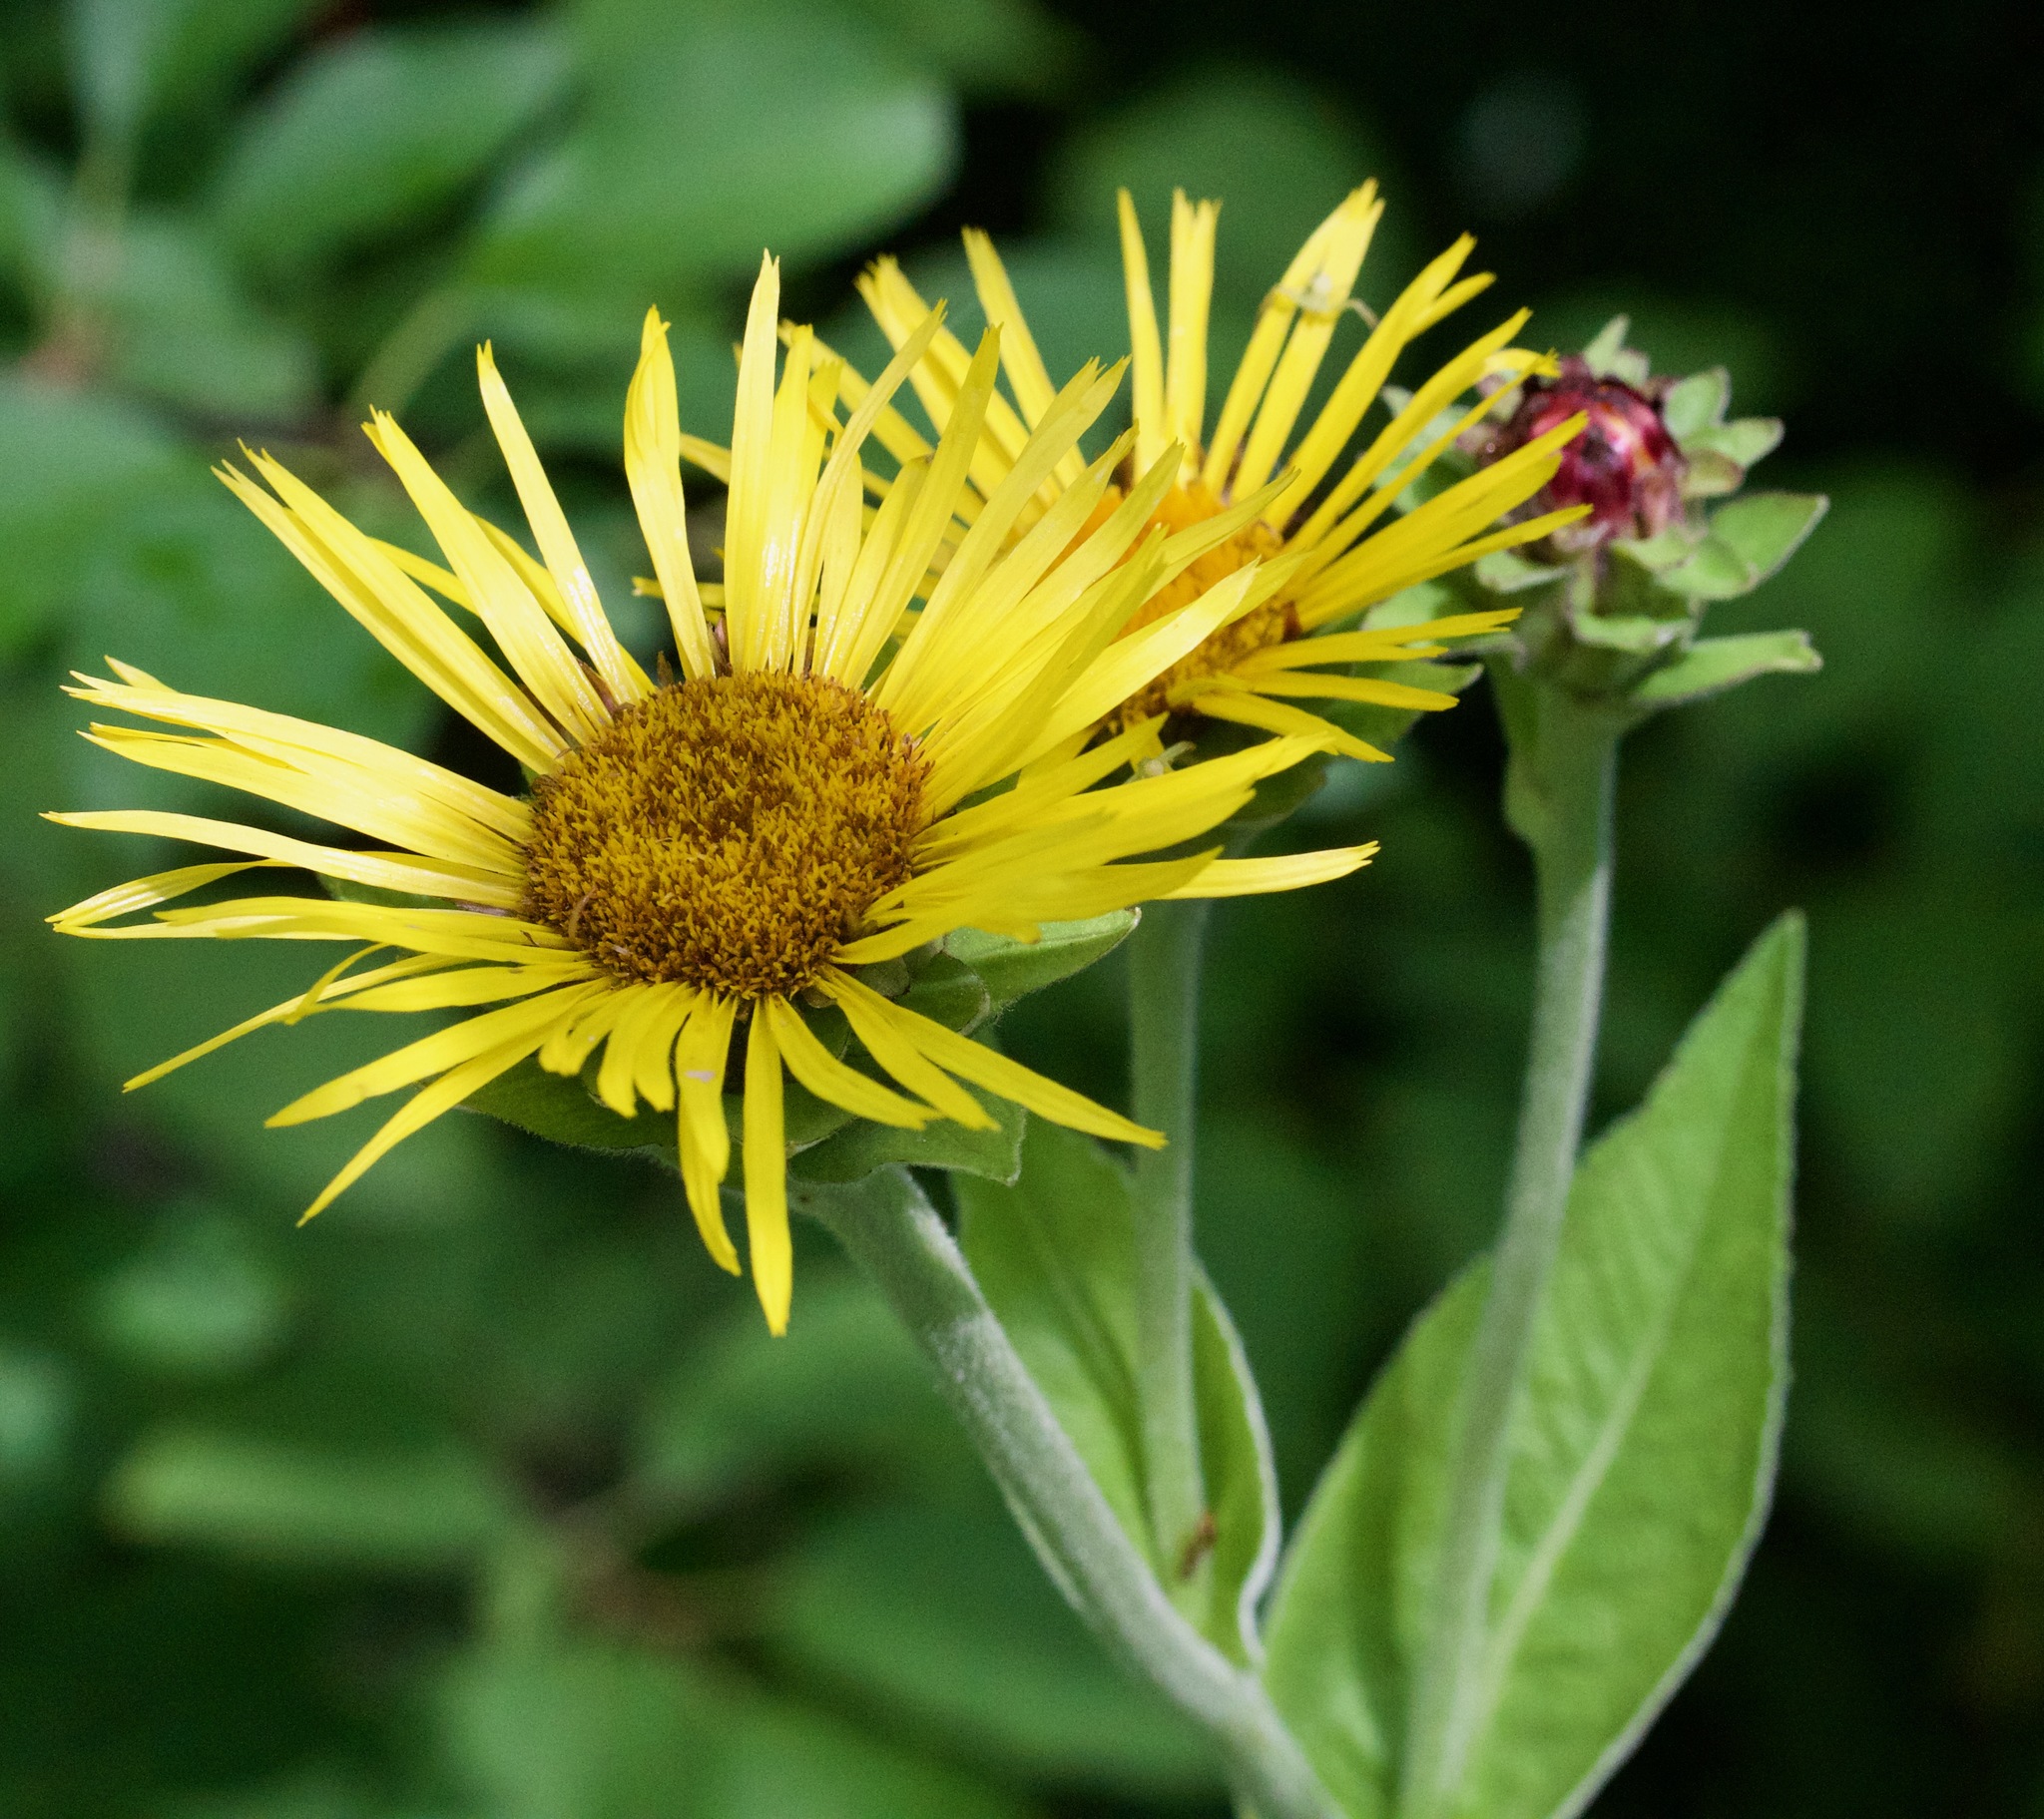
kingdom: Plantae
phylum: Tracheophyta
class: Magnoliopsida
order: Asterales
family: Asteraceae
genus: Inula
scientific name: Inula helenium
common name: Elecampane
